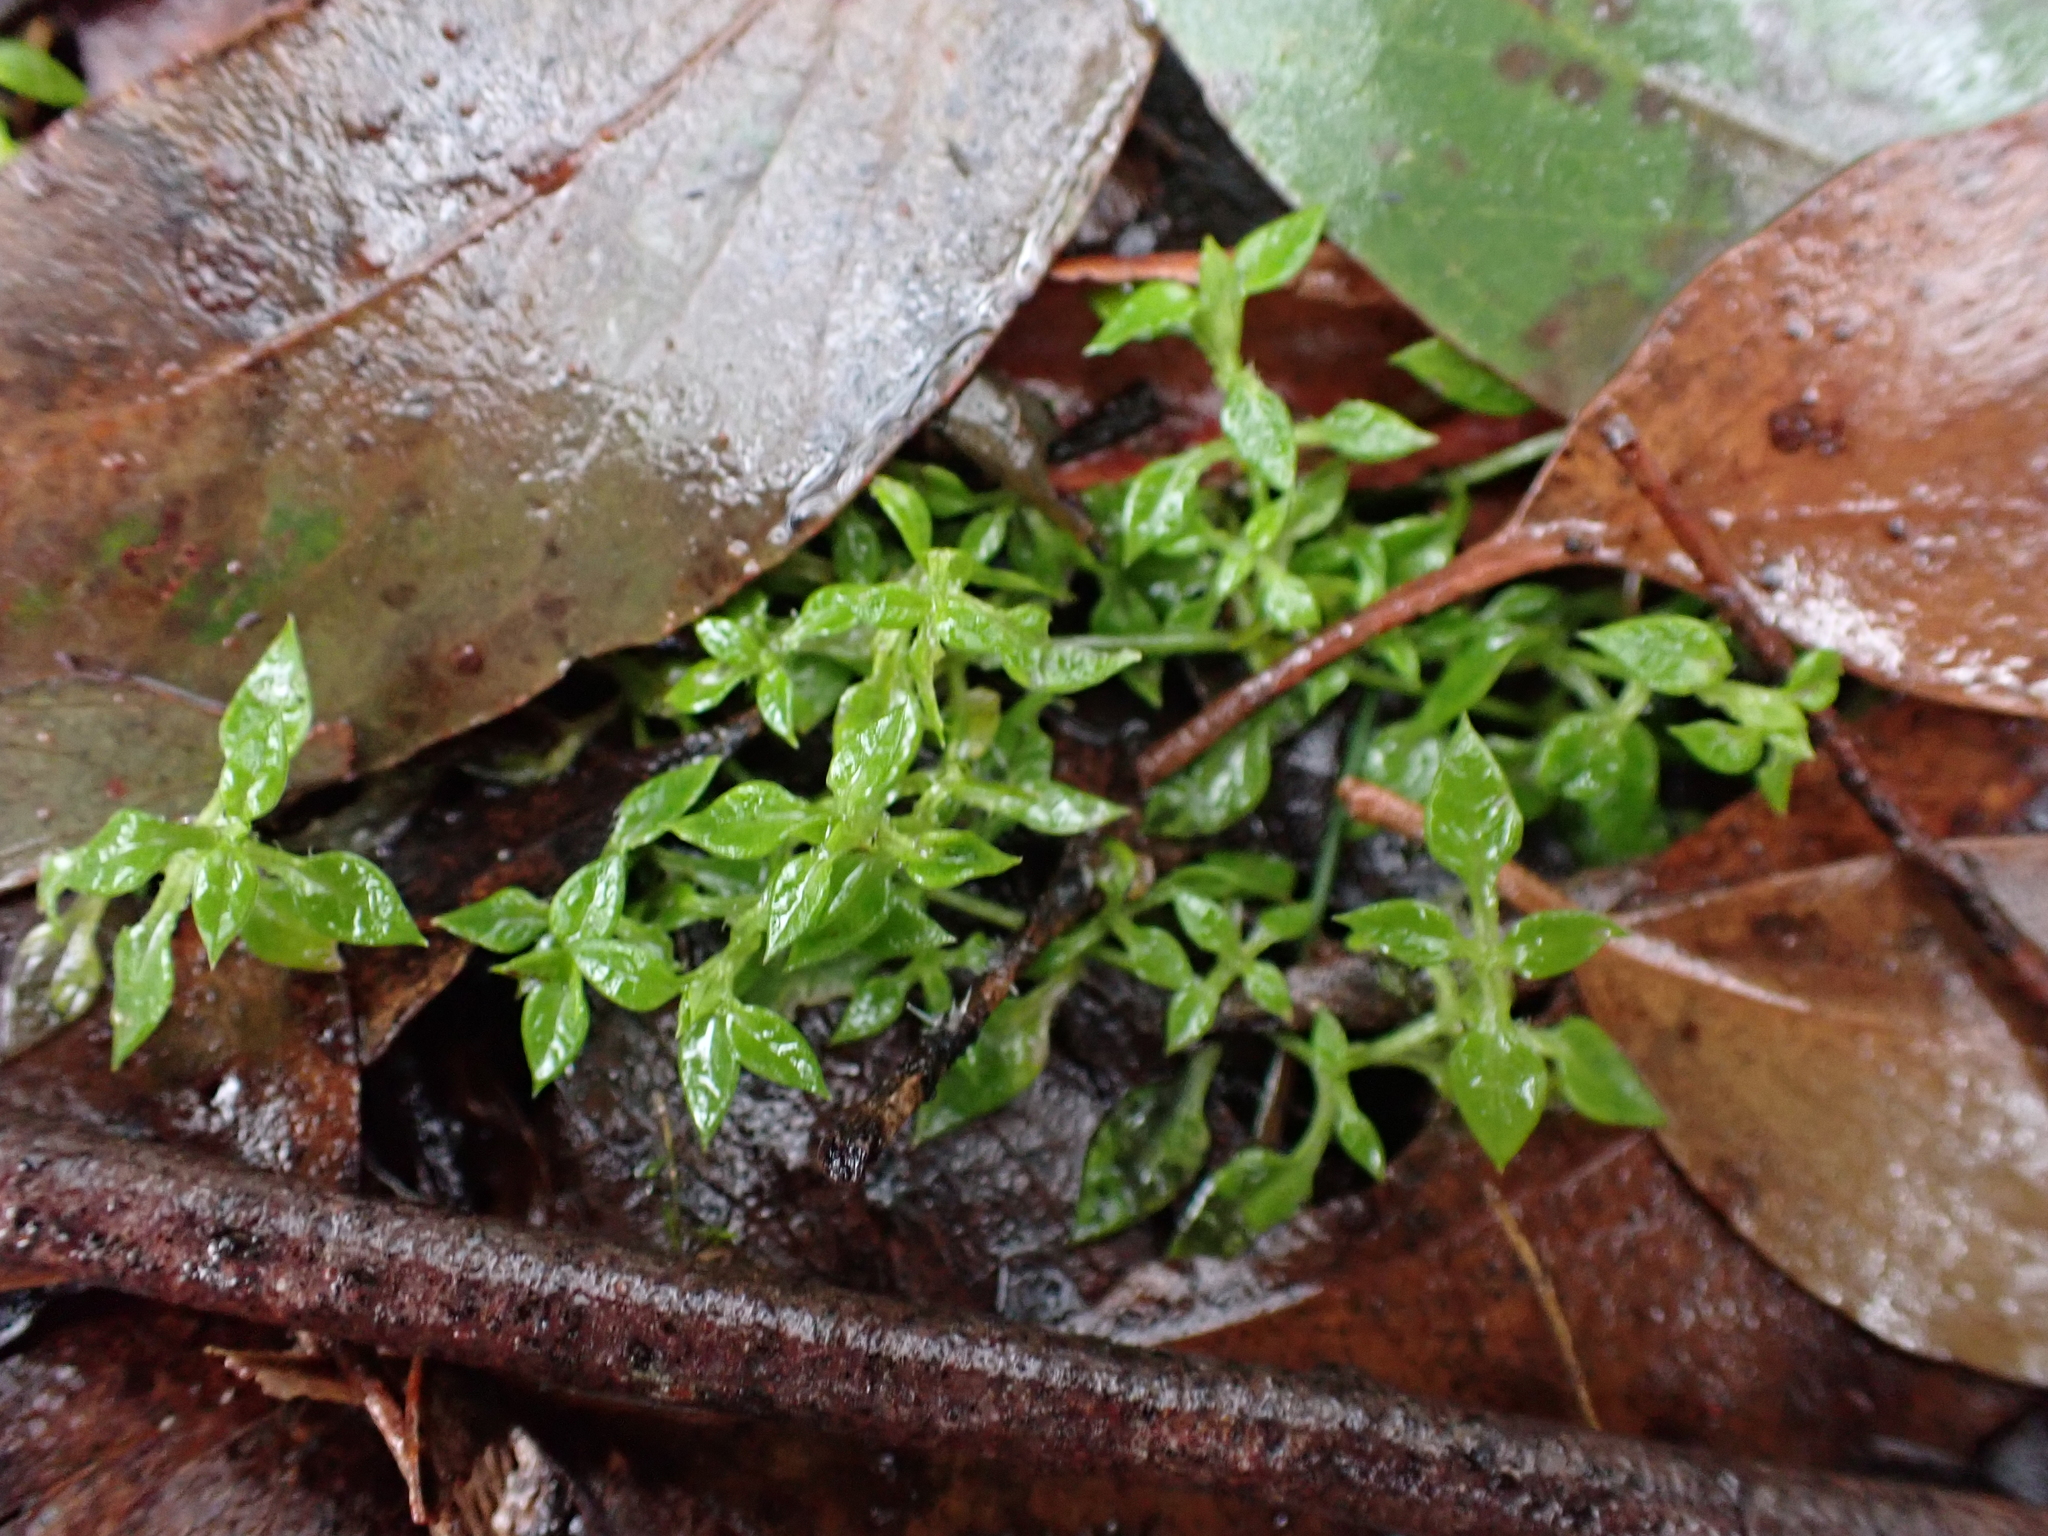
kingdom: Plantae
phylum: Tracheophyta
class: Magnoliopsida
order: Caryophyllales
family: Caryophyllaceae
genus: Stellaria
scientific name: Stellaria flaccida
